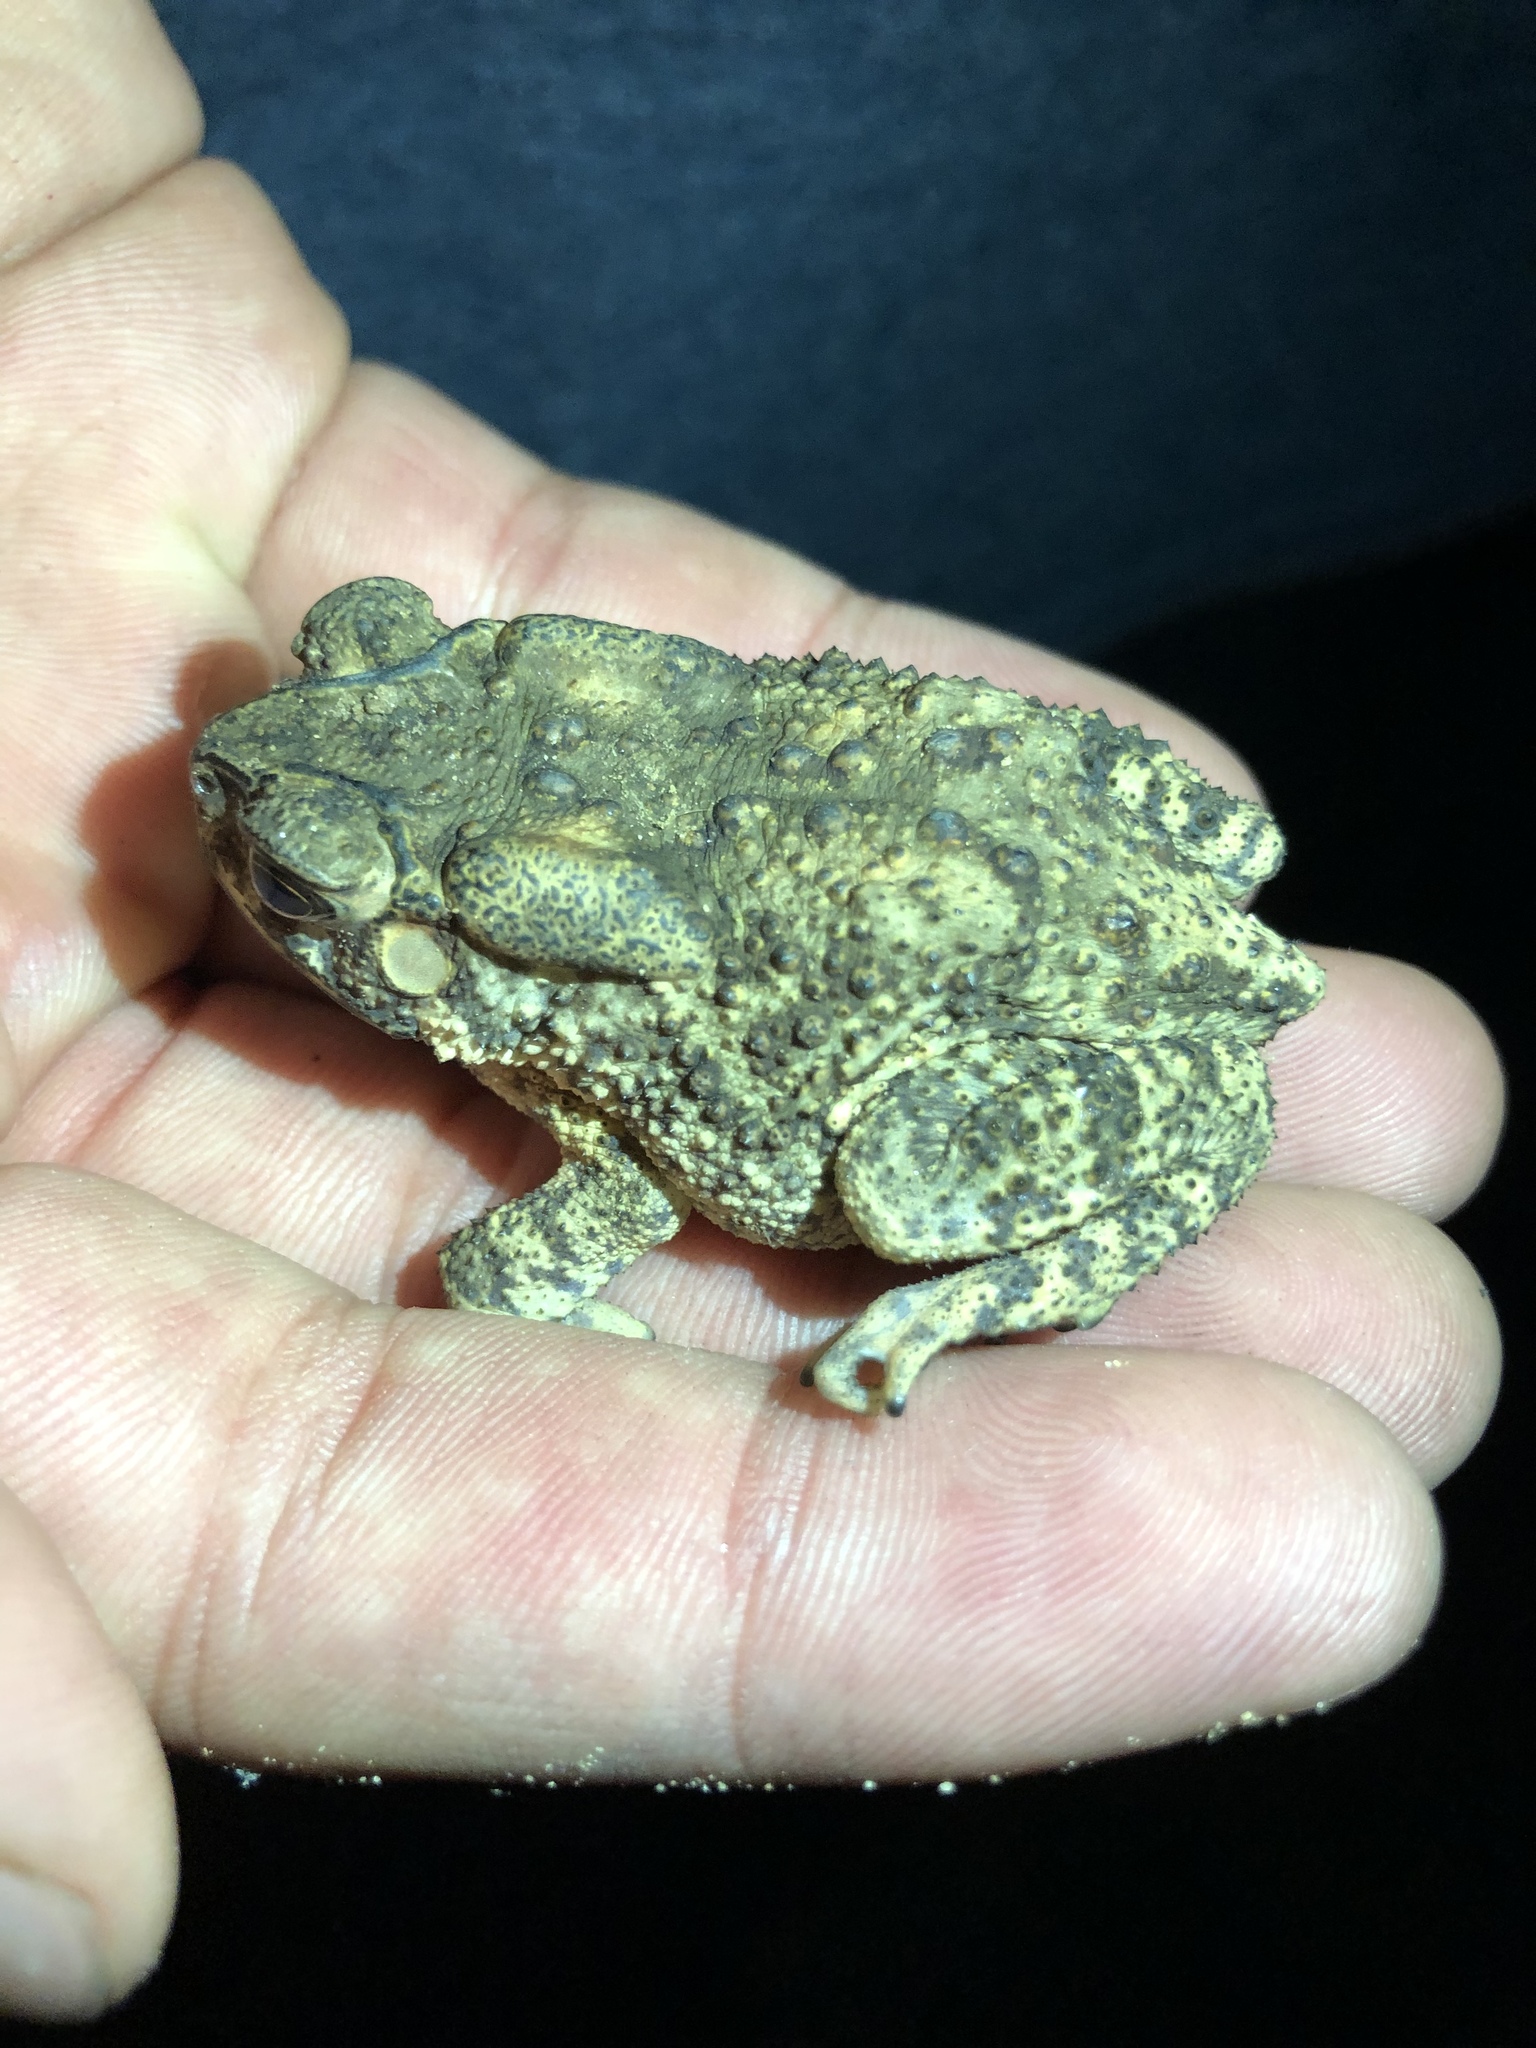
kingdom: Animalia
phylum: Chordata
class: Amphibia
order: Anura
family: Bufonidae
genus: Duttaphrynus
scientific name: Duttaphrynus melanostictus
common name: Common sunda toad
